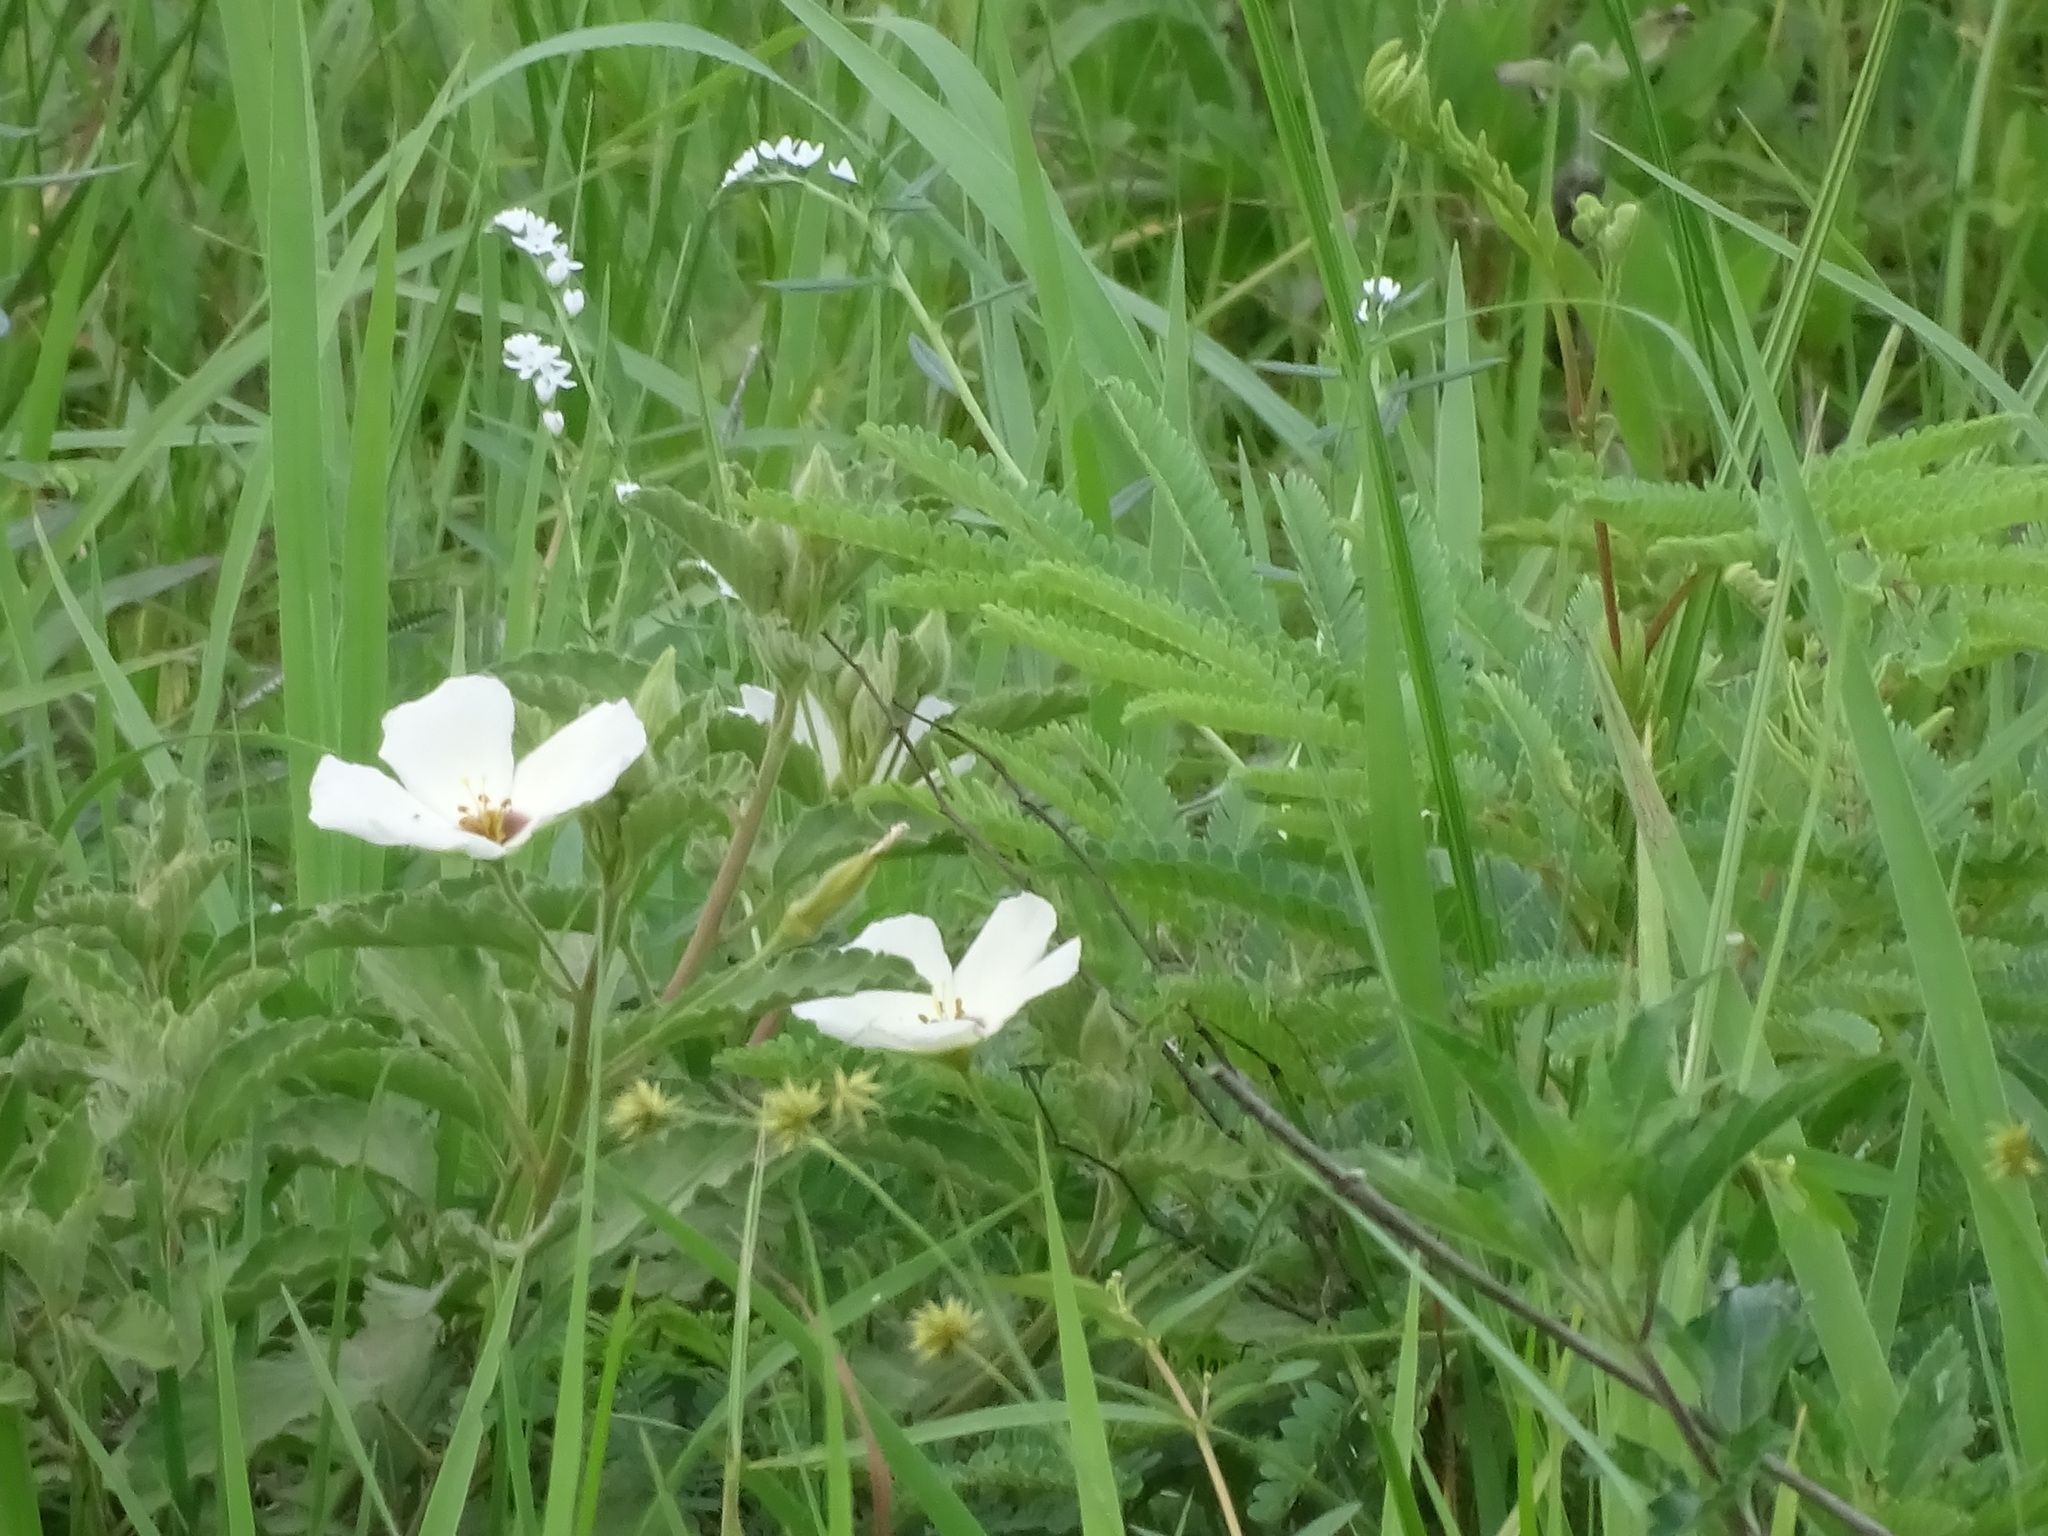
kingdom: Plantae
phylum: Tracheophyta
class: Magnoliopsida
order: Malpighiales
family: Turneraceae
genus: Piriqueta
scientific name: Piriqueta mortonii
